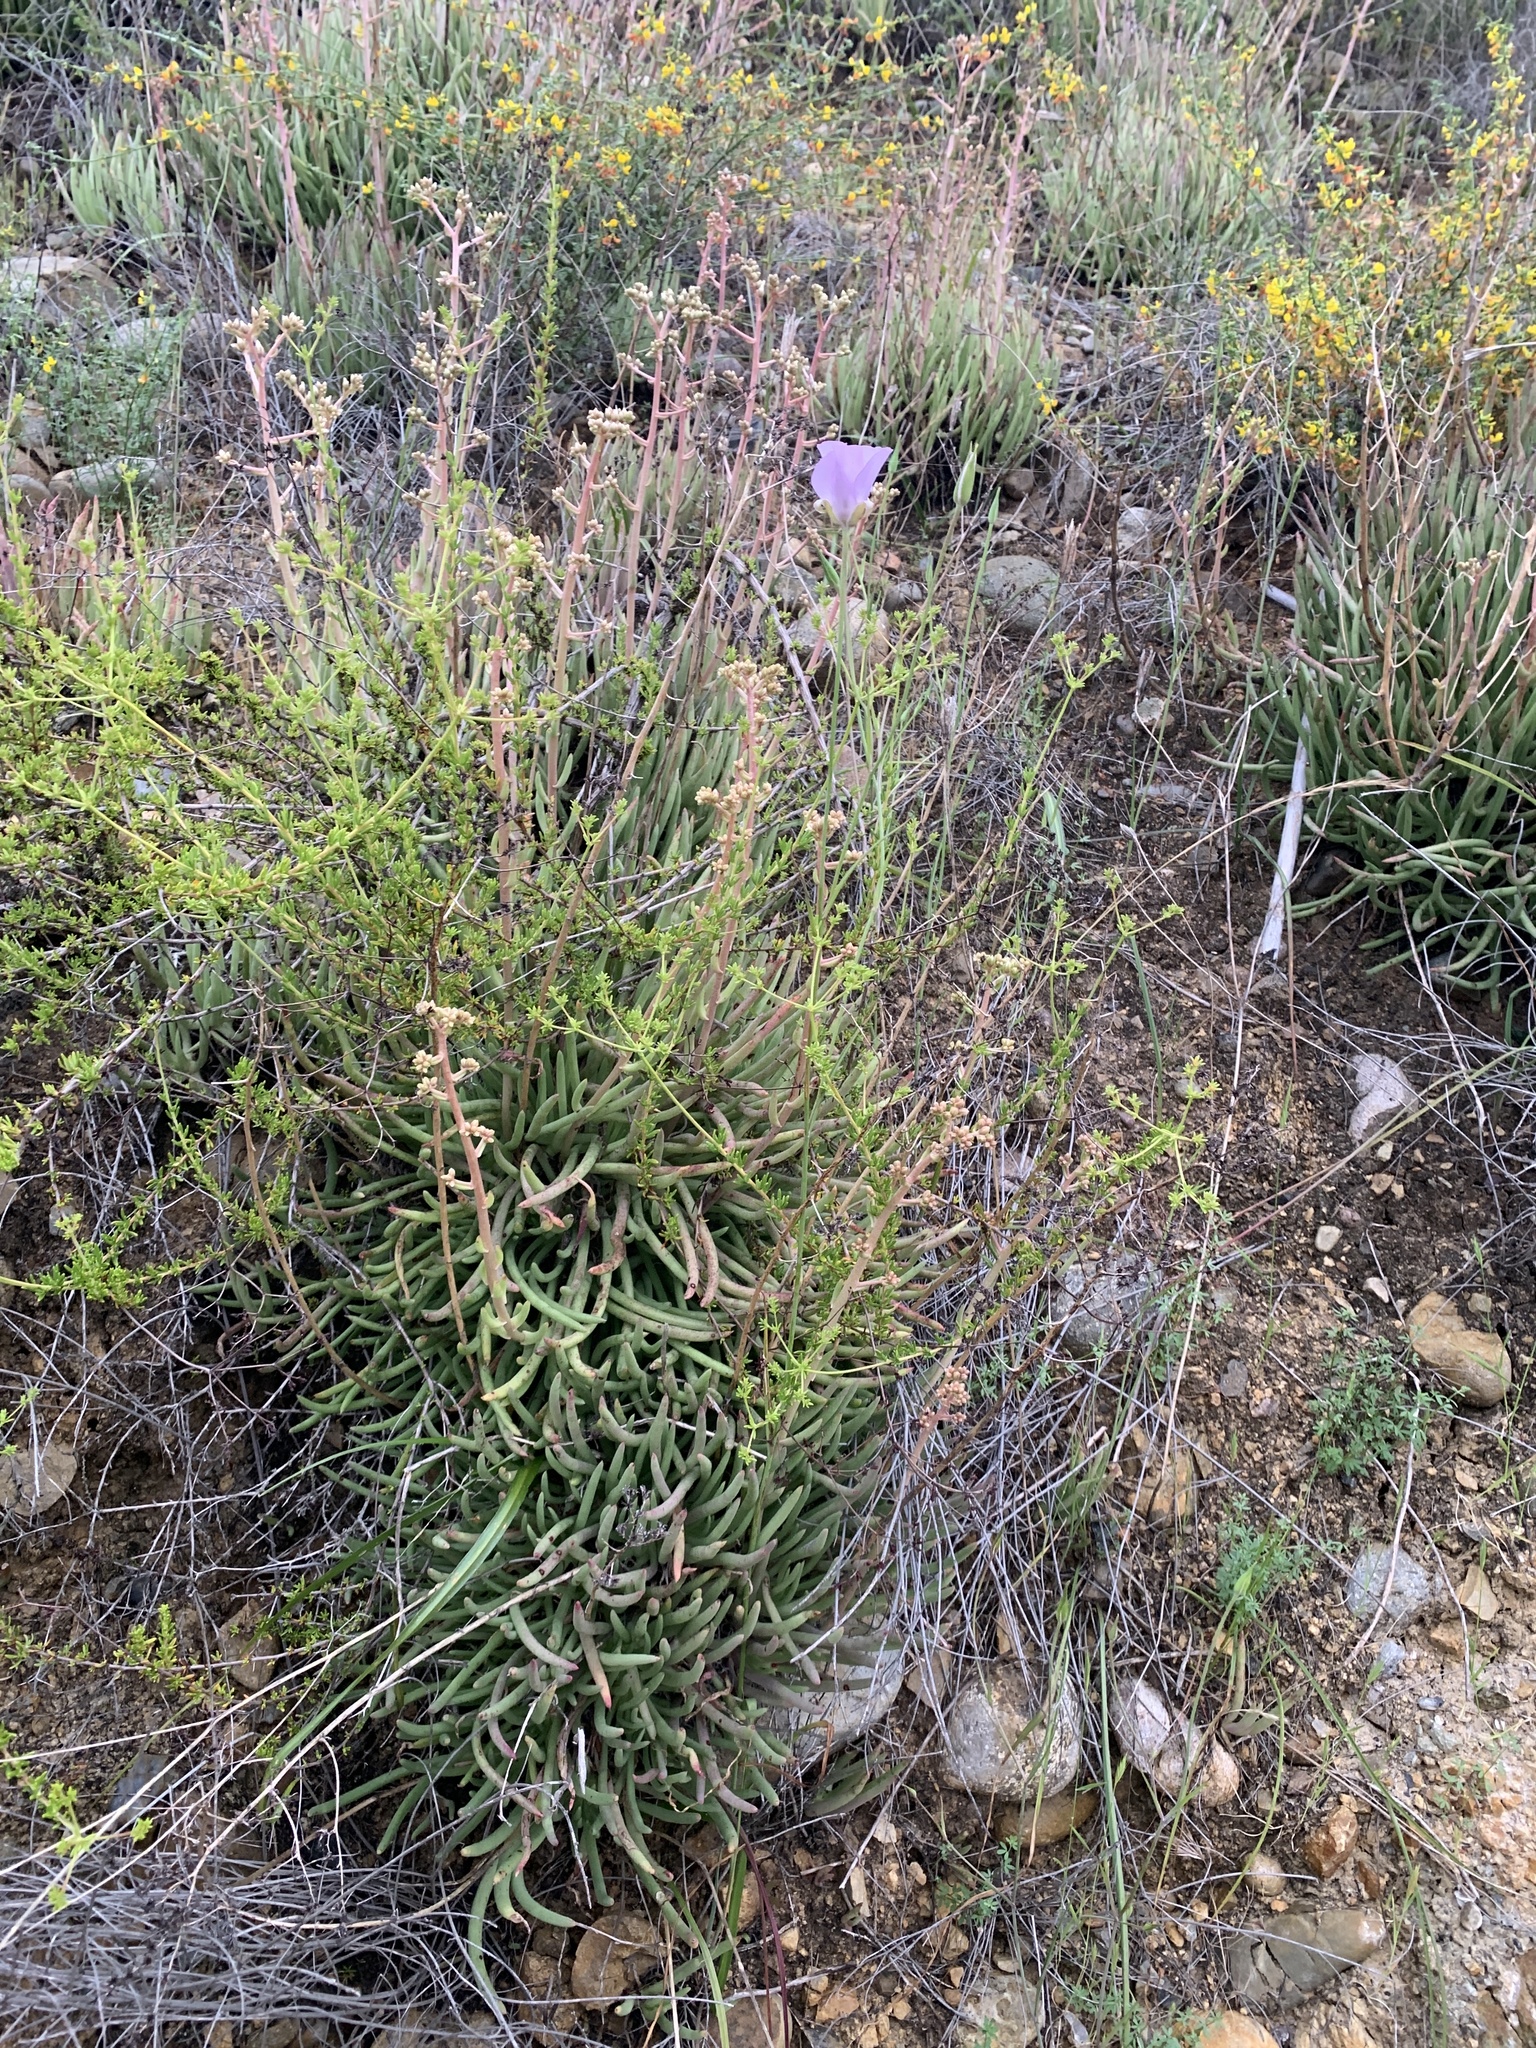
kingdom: Plantae
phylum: Tracheophyta
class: Liliopsida
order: Liliales
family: Liliaceae
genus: Calochortus
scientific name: Calochortus splendens
